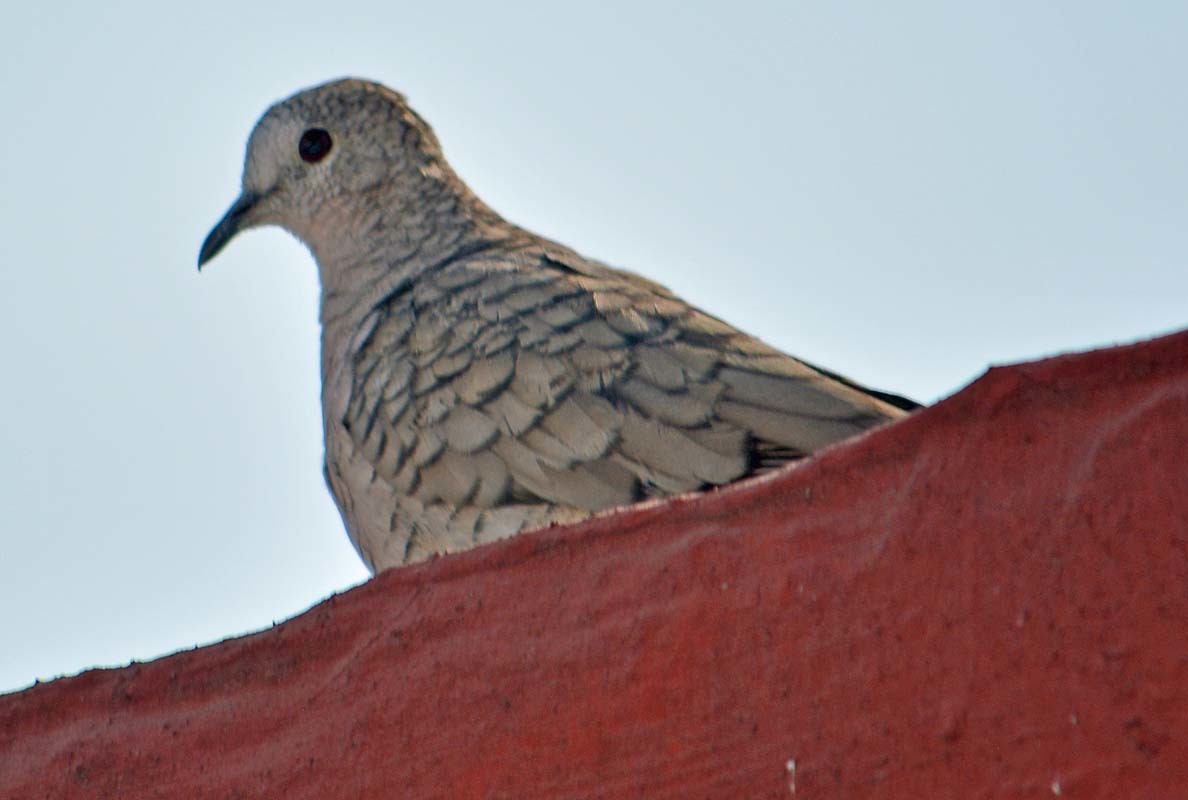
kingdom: Animalia
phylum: Chordata
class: Aves
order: Columbiformes
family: Columbidae
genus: Columbina
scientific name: Columbina inca
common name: Inca dove
